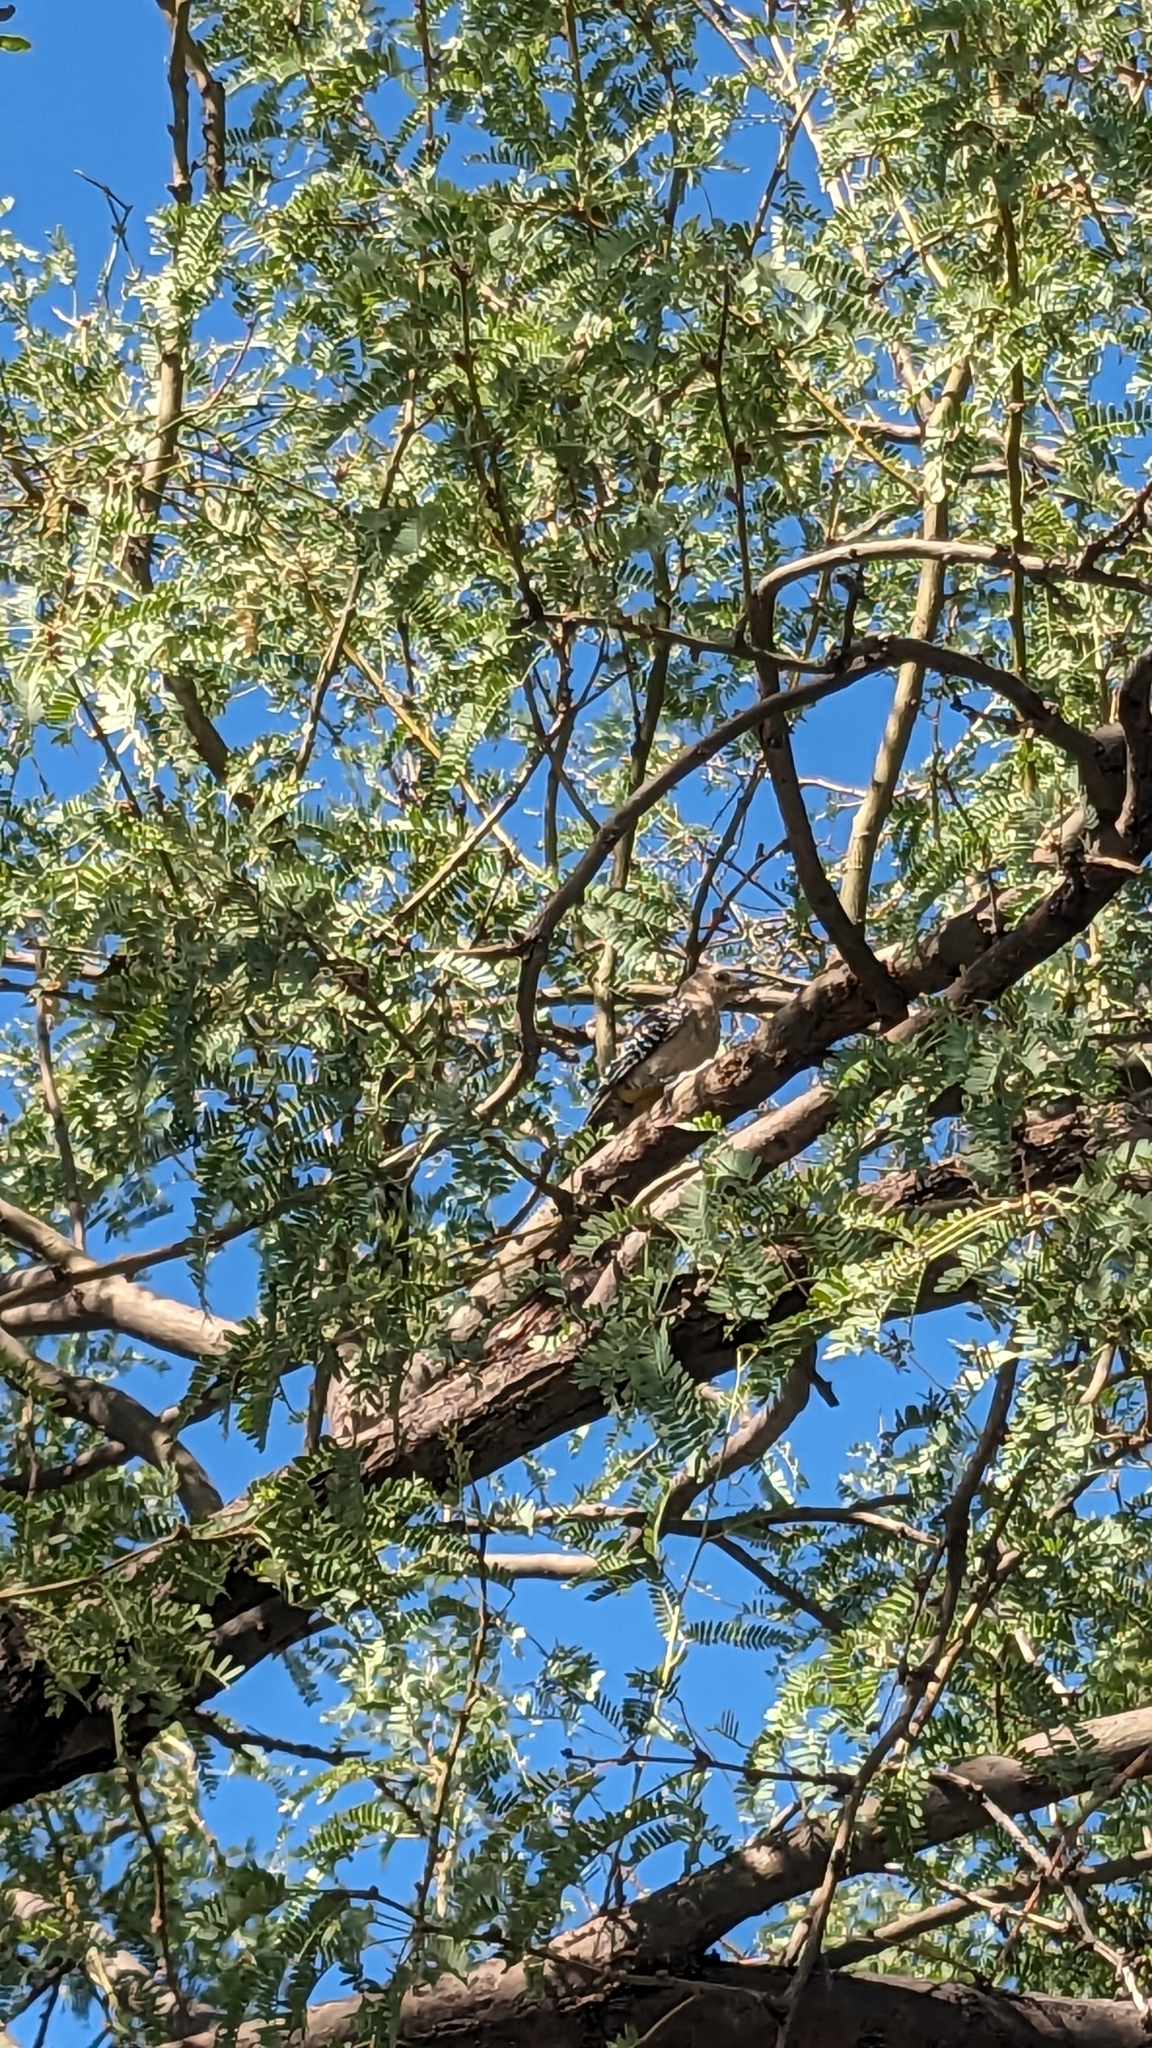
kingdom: Animalia
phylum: Chordata
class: Aves
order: Piciformes
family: Picidae
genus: Melanerpes
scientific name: Melanerpes uropygialis
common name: Gila woodpecker
